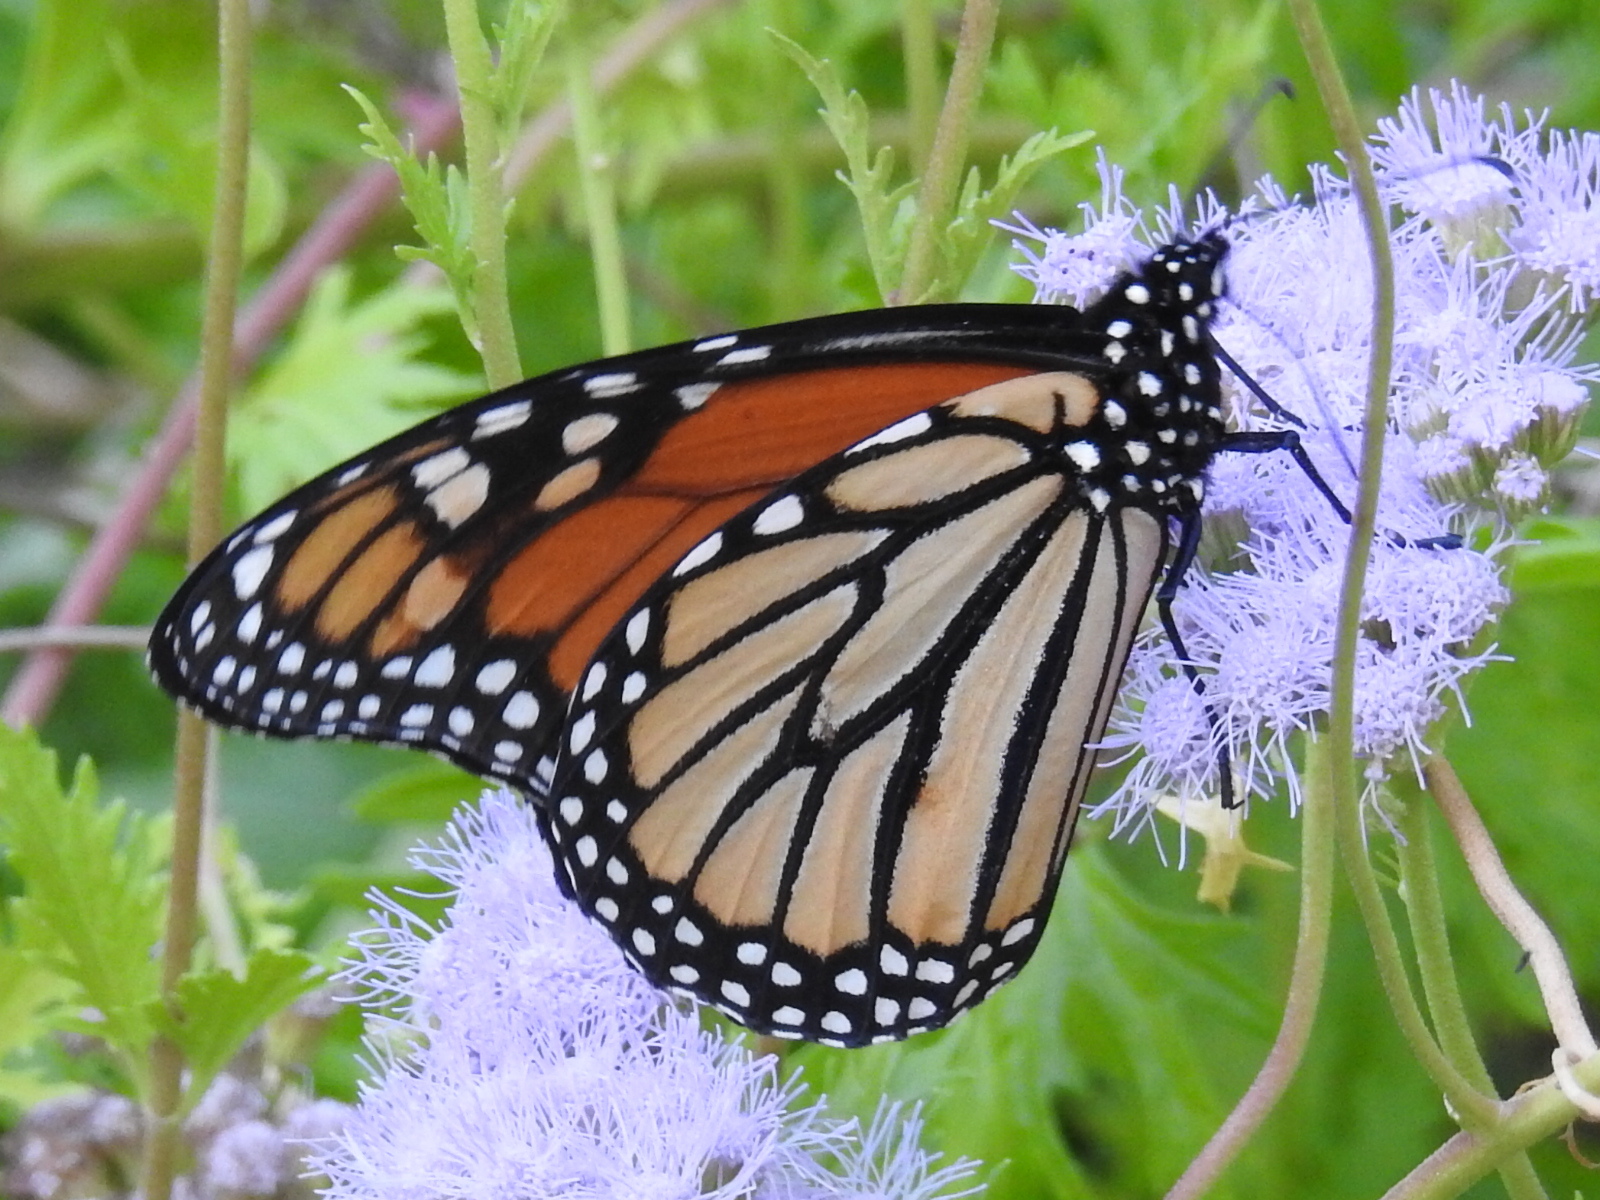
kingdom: Animalia
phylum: Arthropoda
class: Insecta
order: Lepidoptera
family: Nymphalidae
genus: Danaus
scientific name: Danaus plexippus
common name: Monarch
